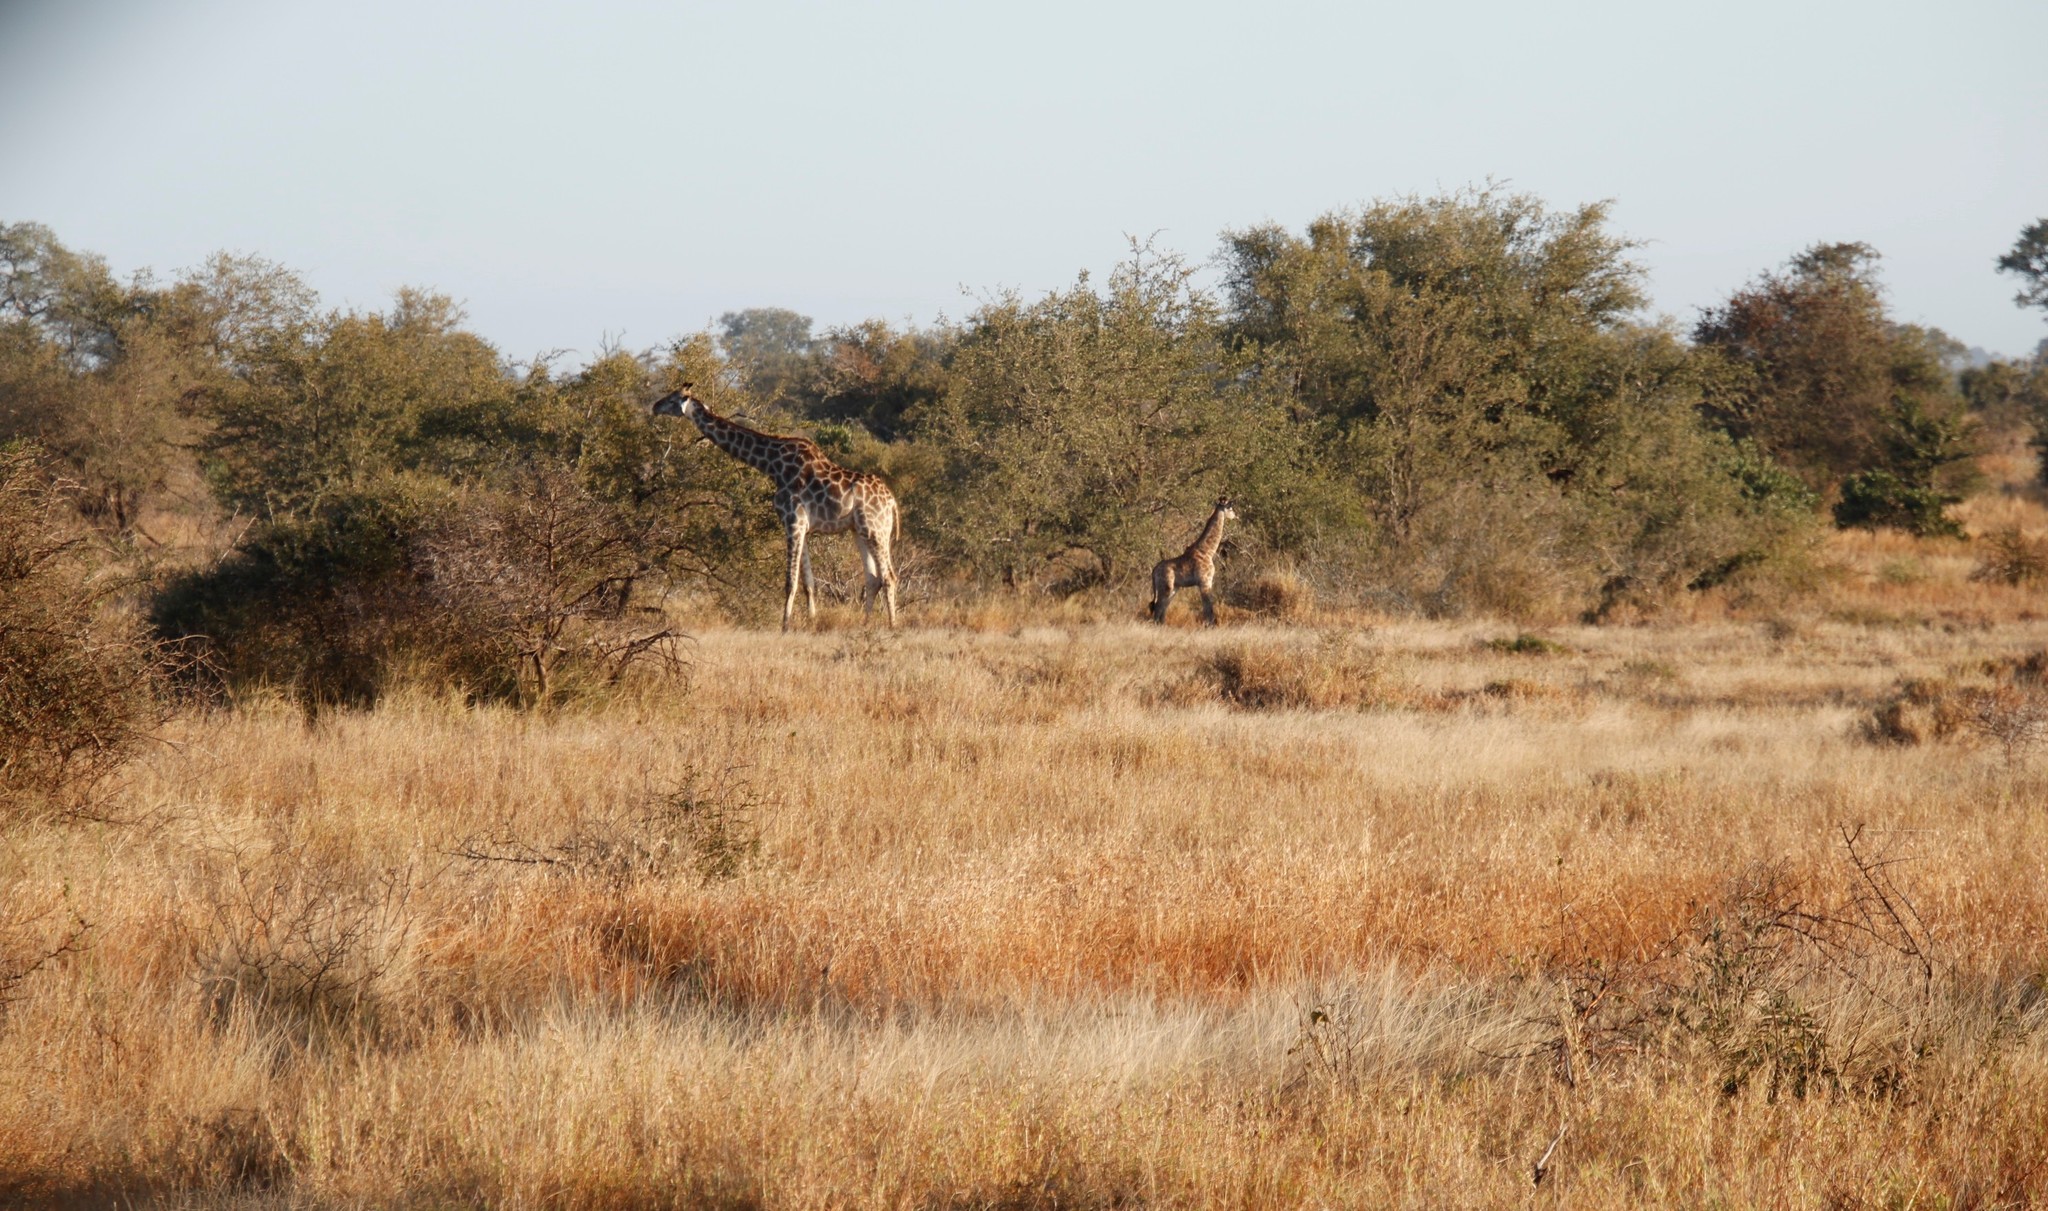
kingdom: Animalia
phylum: Chordata
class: Mammalia
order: Artiodactyla
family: Giraffidae
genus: Giraffa
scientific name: Giraffa giraffa
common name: Southern giraffe
